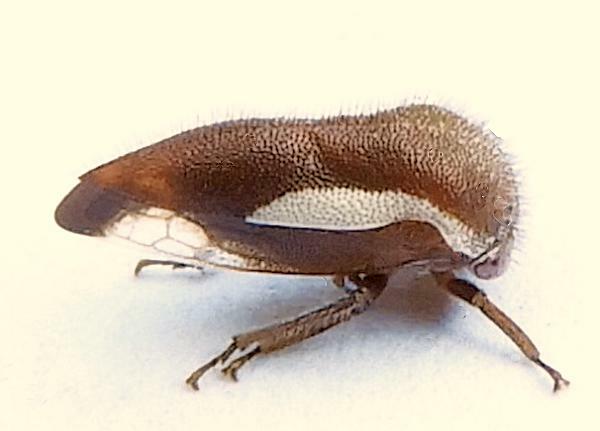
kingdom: Animalia
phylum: Arthropoda
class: Insecta
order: Hemiptera
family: Membracidae
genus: Ophiderma
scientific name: Ophiderma flavicephala
